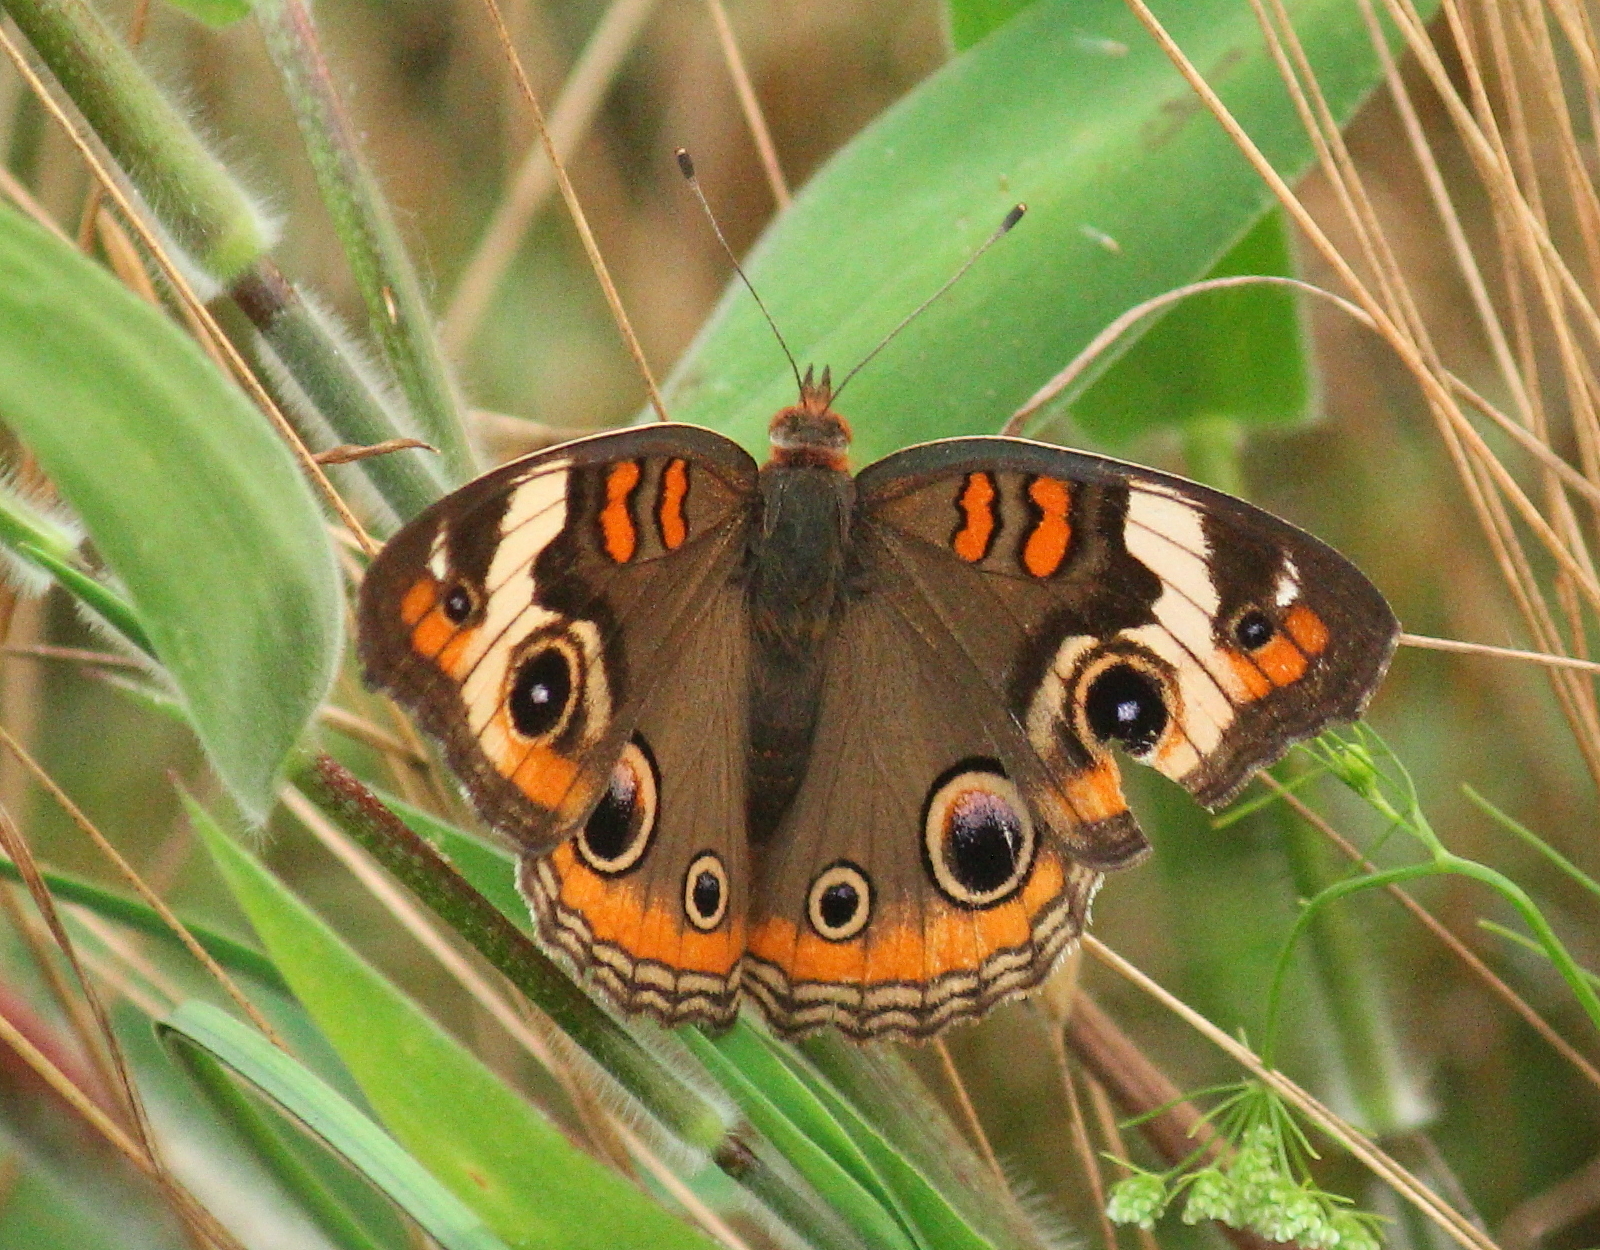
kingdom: Animalia
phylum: Arthropoda
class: Insecta
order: Lepidoptera
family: Nymphalidae
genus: Junonia
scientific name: Junonia coenia
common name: Common buckeye
